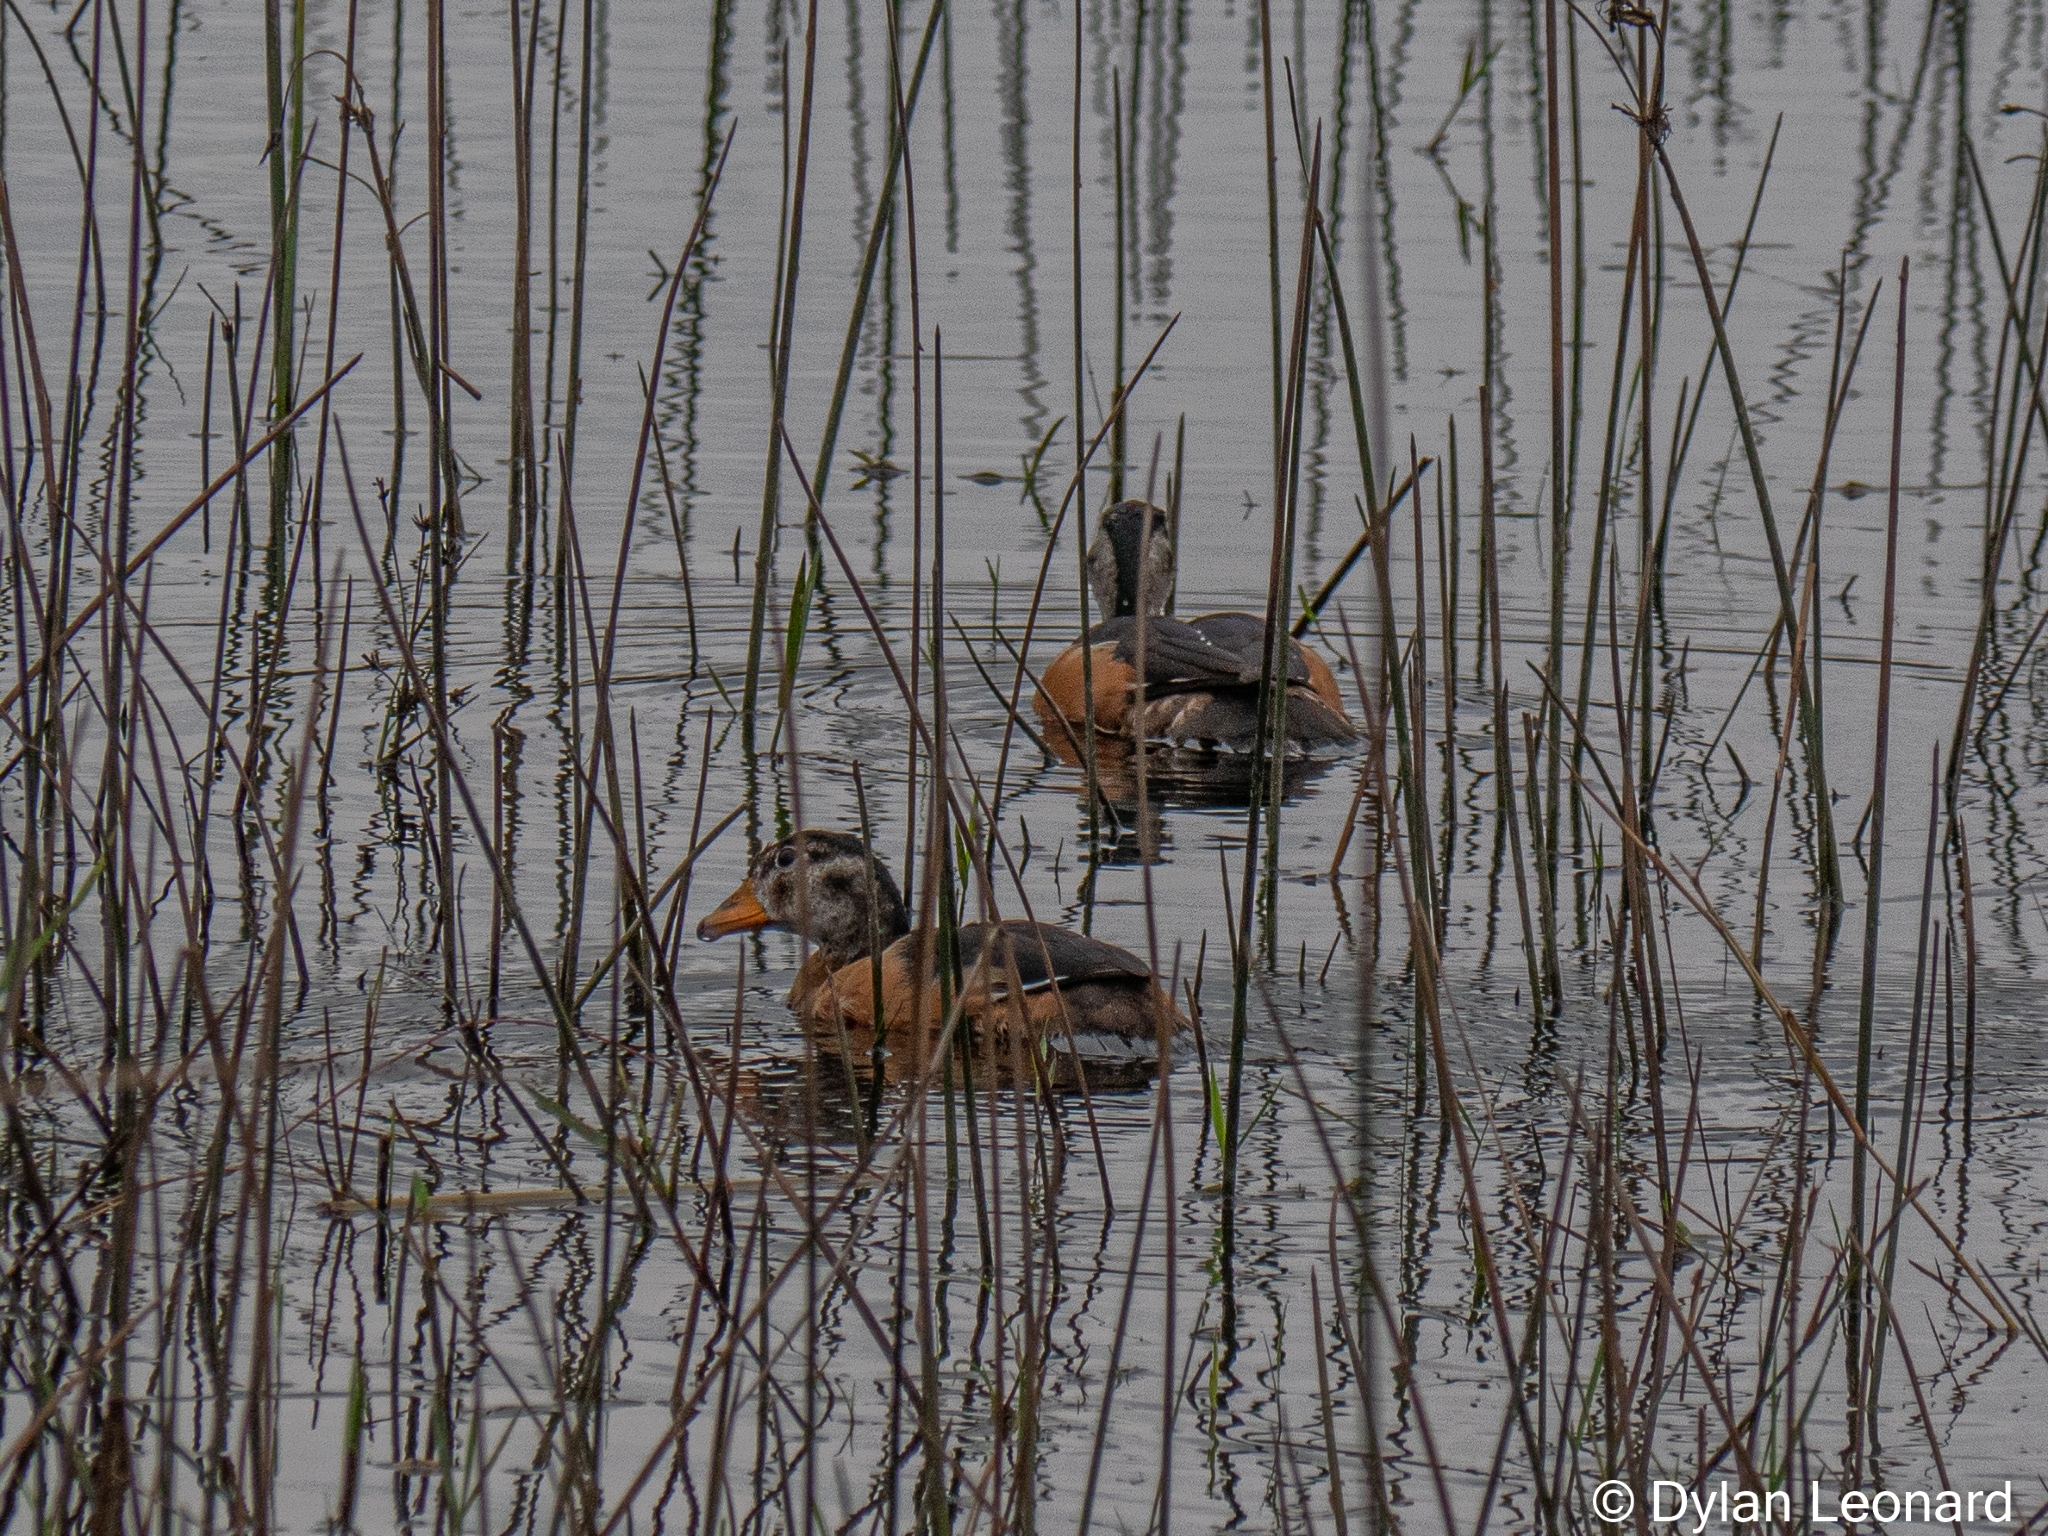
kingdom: Animalia
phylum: Chordata
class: Aves
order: Anseriformes
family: Anatidae
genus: Nettapus
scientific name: Nettapus auritus
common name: African pygmy-goose
